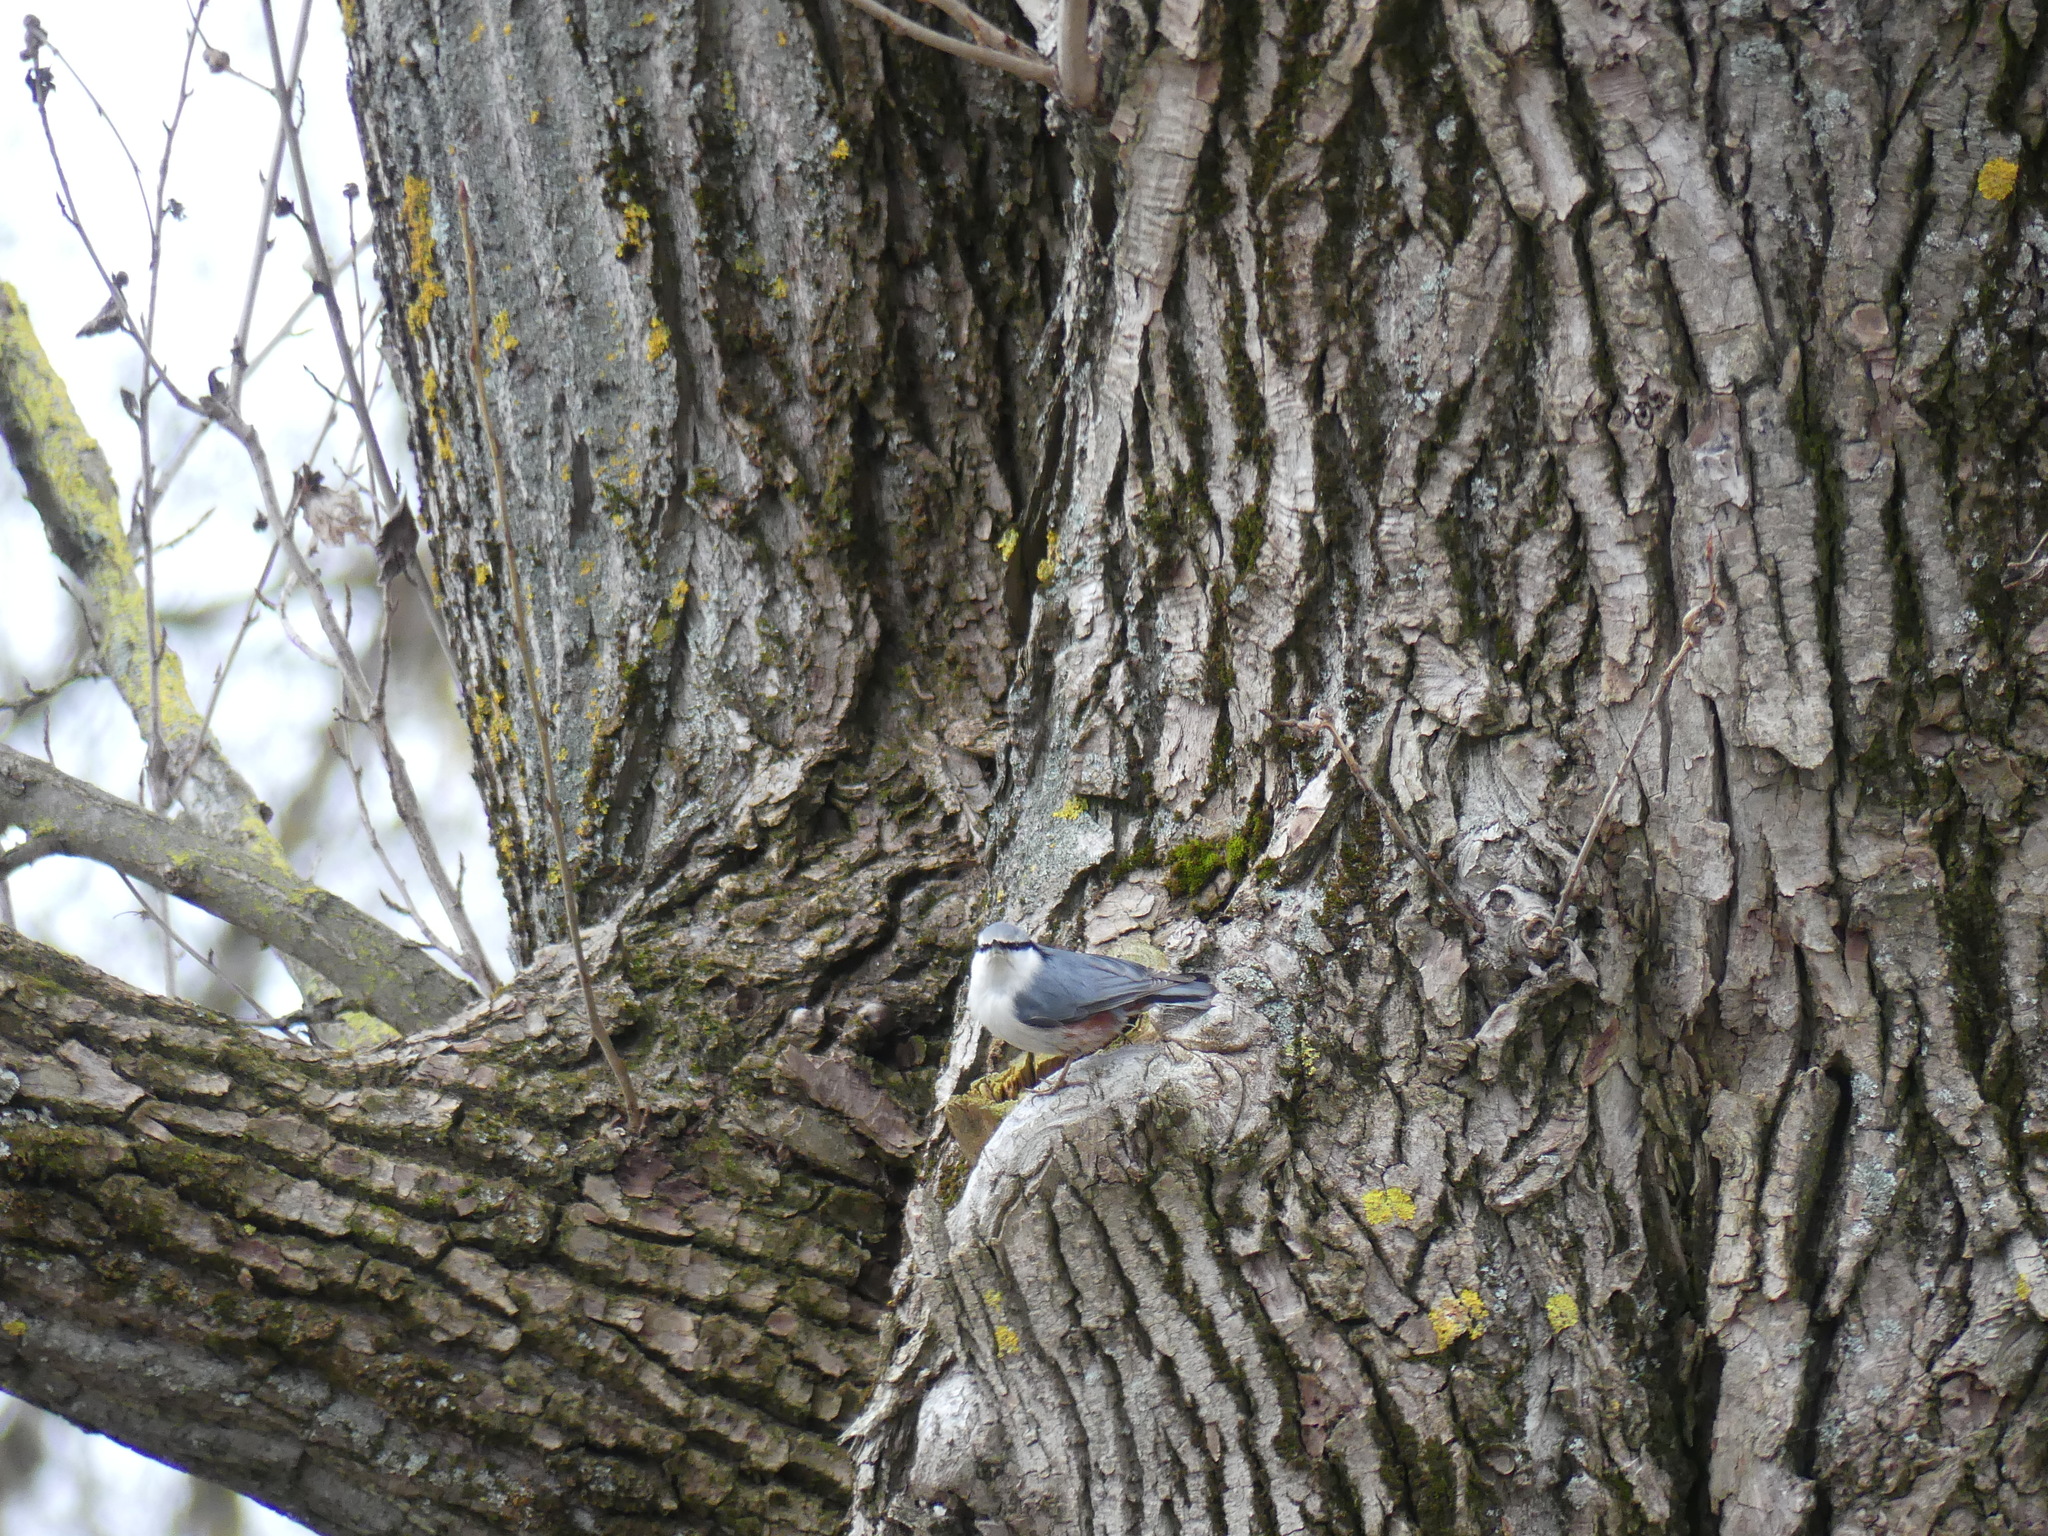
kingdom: Animalia
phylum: Chordata
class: Aves
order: Passeriformes
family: Sittidae
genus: Sitta
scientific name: Sitta europaea
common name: Eurasian nuthatch
